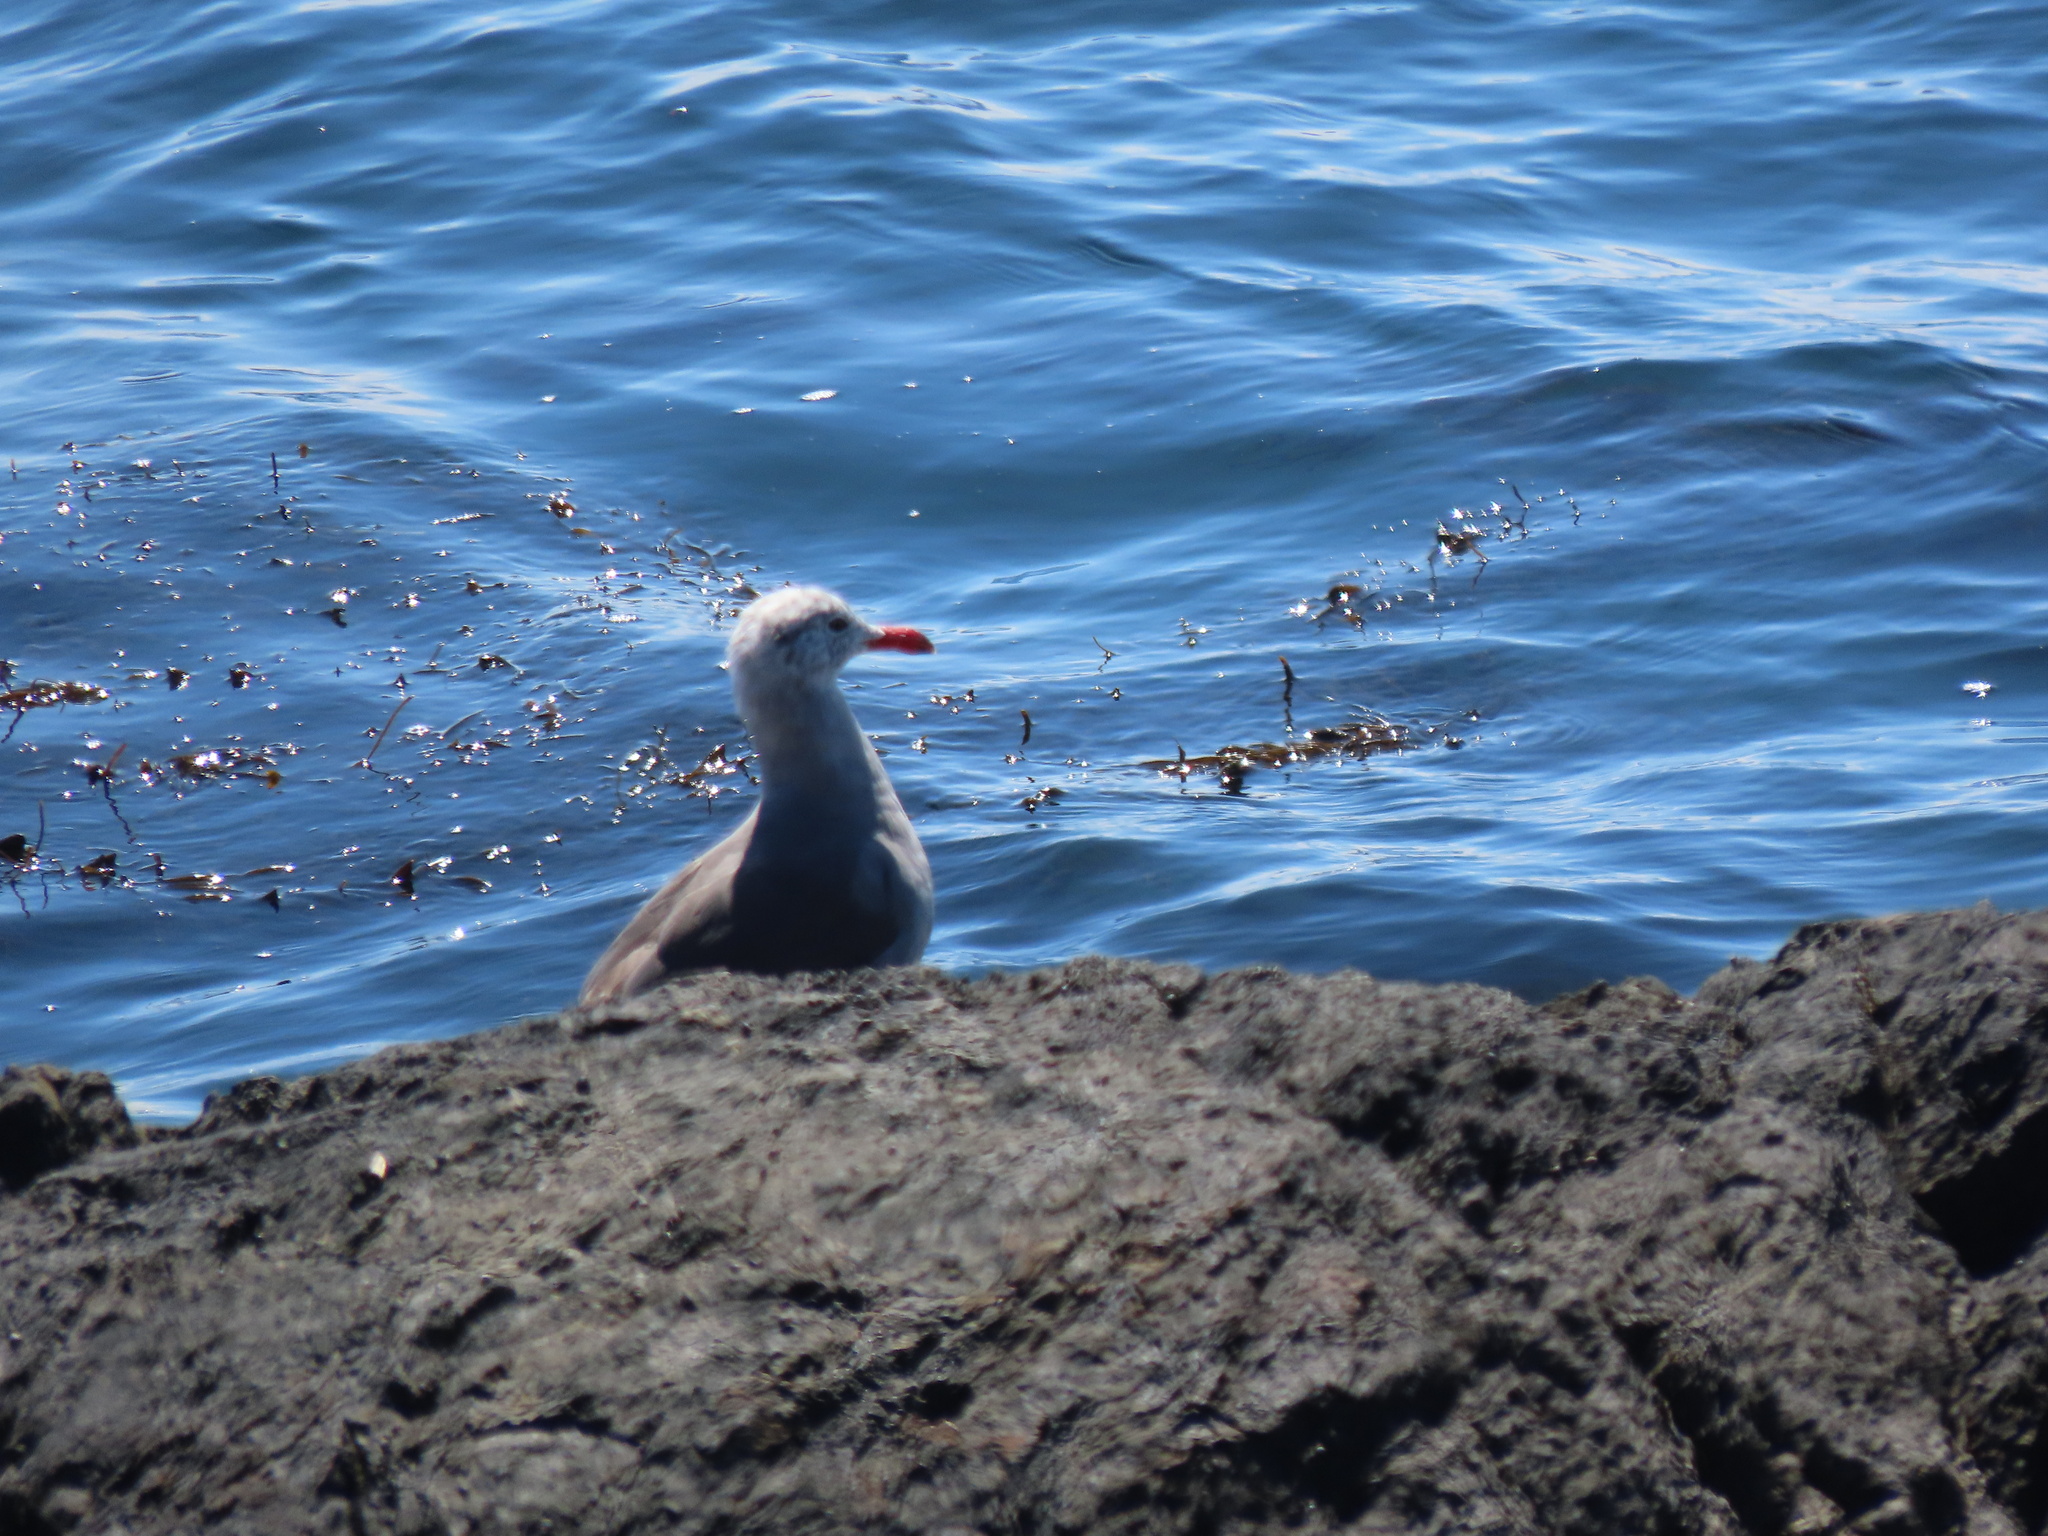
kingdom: Animalia
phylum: Chordata
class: Aves
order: Charadriiformes
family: Laridae
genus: Larus
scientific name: Larus heermanni
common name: Heermann's gull
